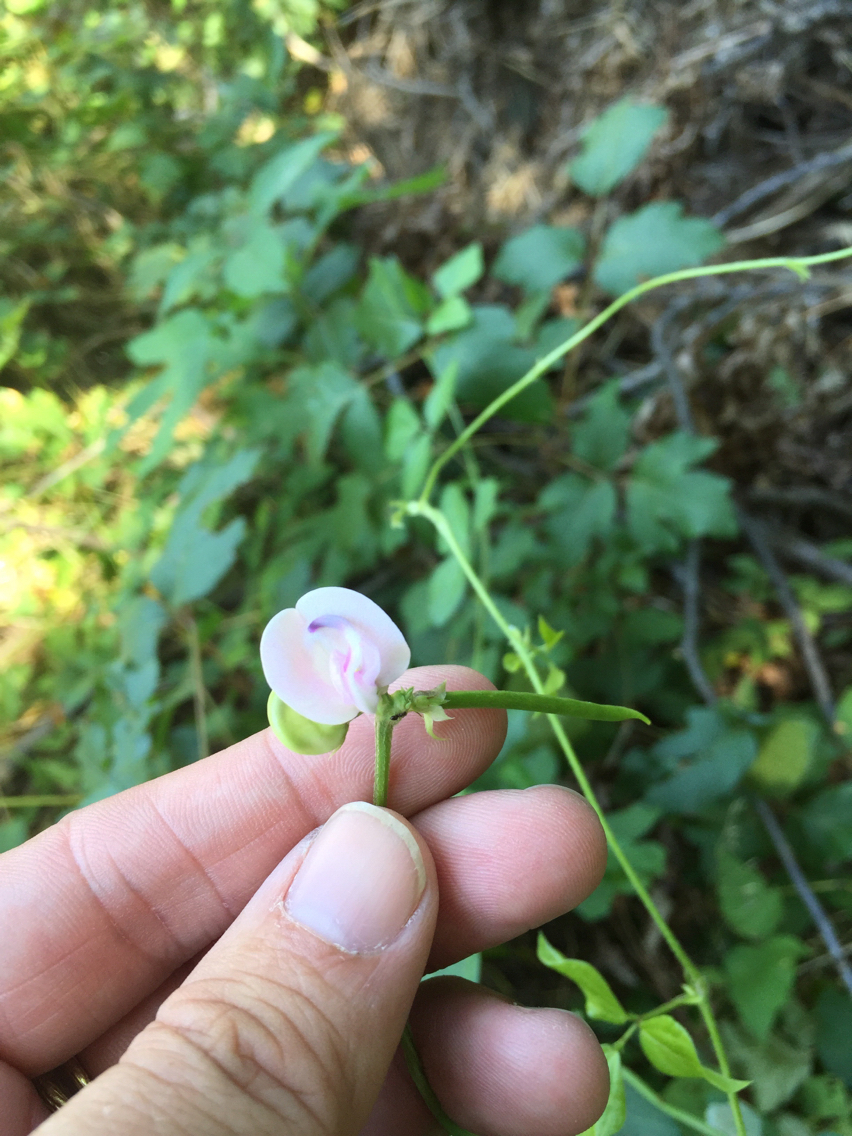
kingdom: Plantae
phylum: Tracheophyta
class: Magnoliopsida
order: Fabales
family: Fabaceae
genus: Strophostyles
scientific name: Strophostyles helvola
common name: Trailing wild bean
